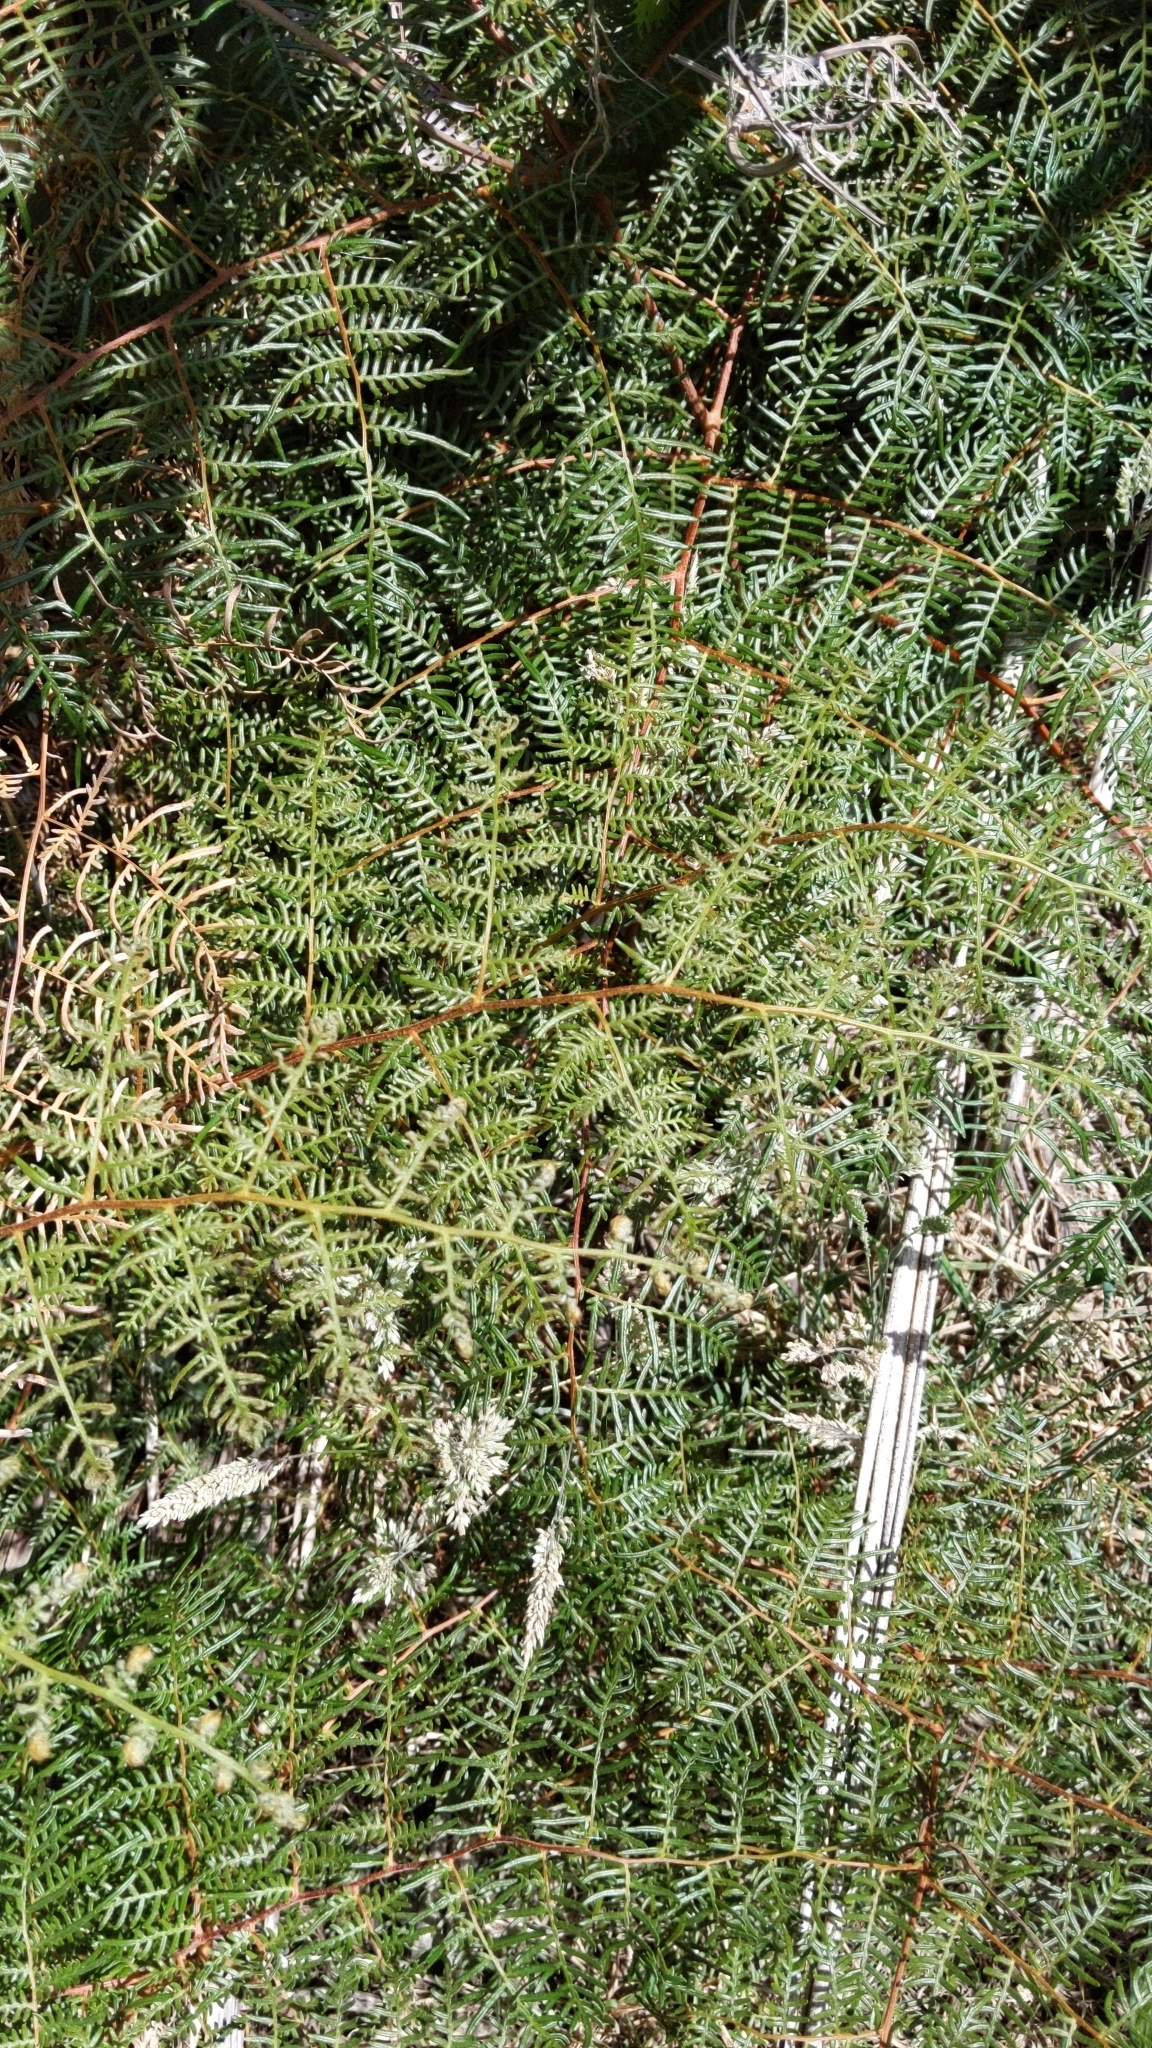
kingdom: Plantae
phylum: Tracheophyta
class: Polypodiopsida
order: Polypodiales
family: Dennstaedtiaceae
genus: Pteridium
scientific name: Pteridium esculentum
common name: Bracken fern
